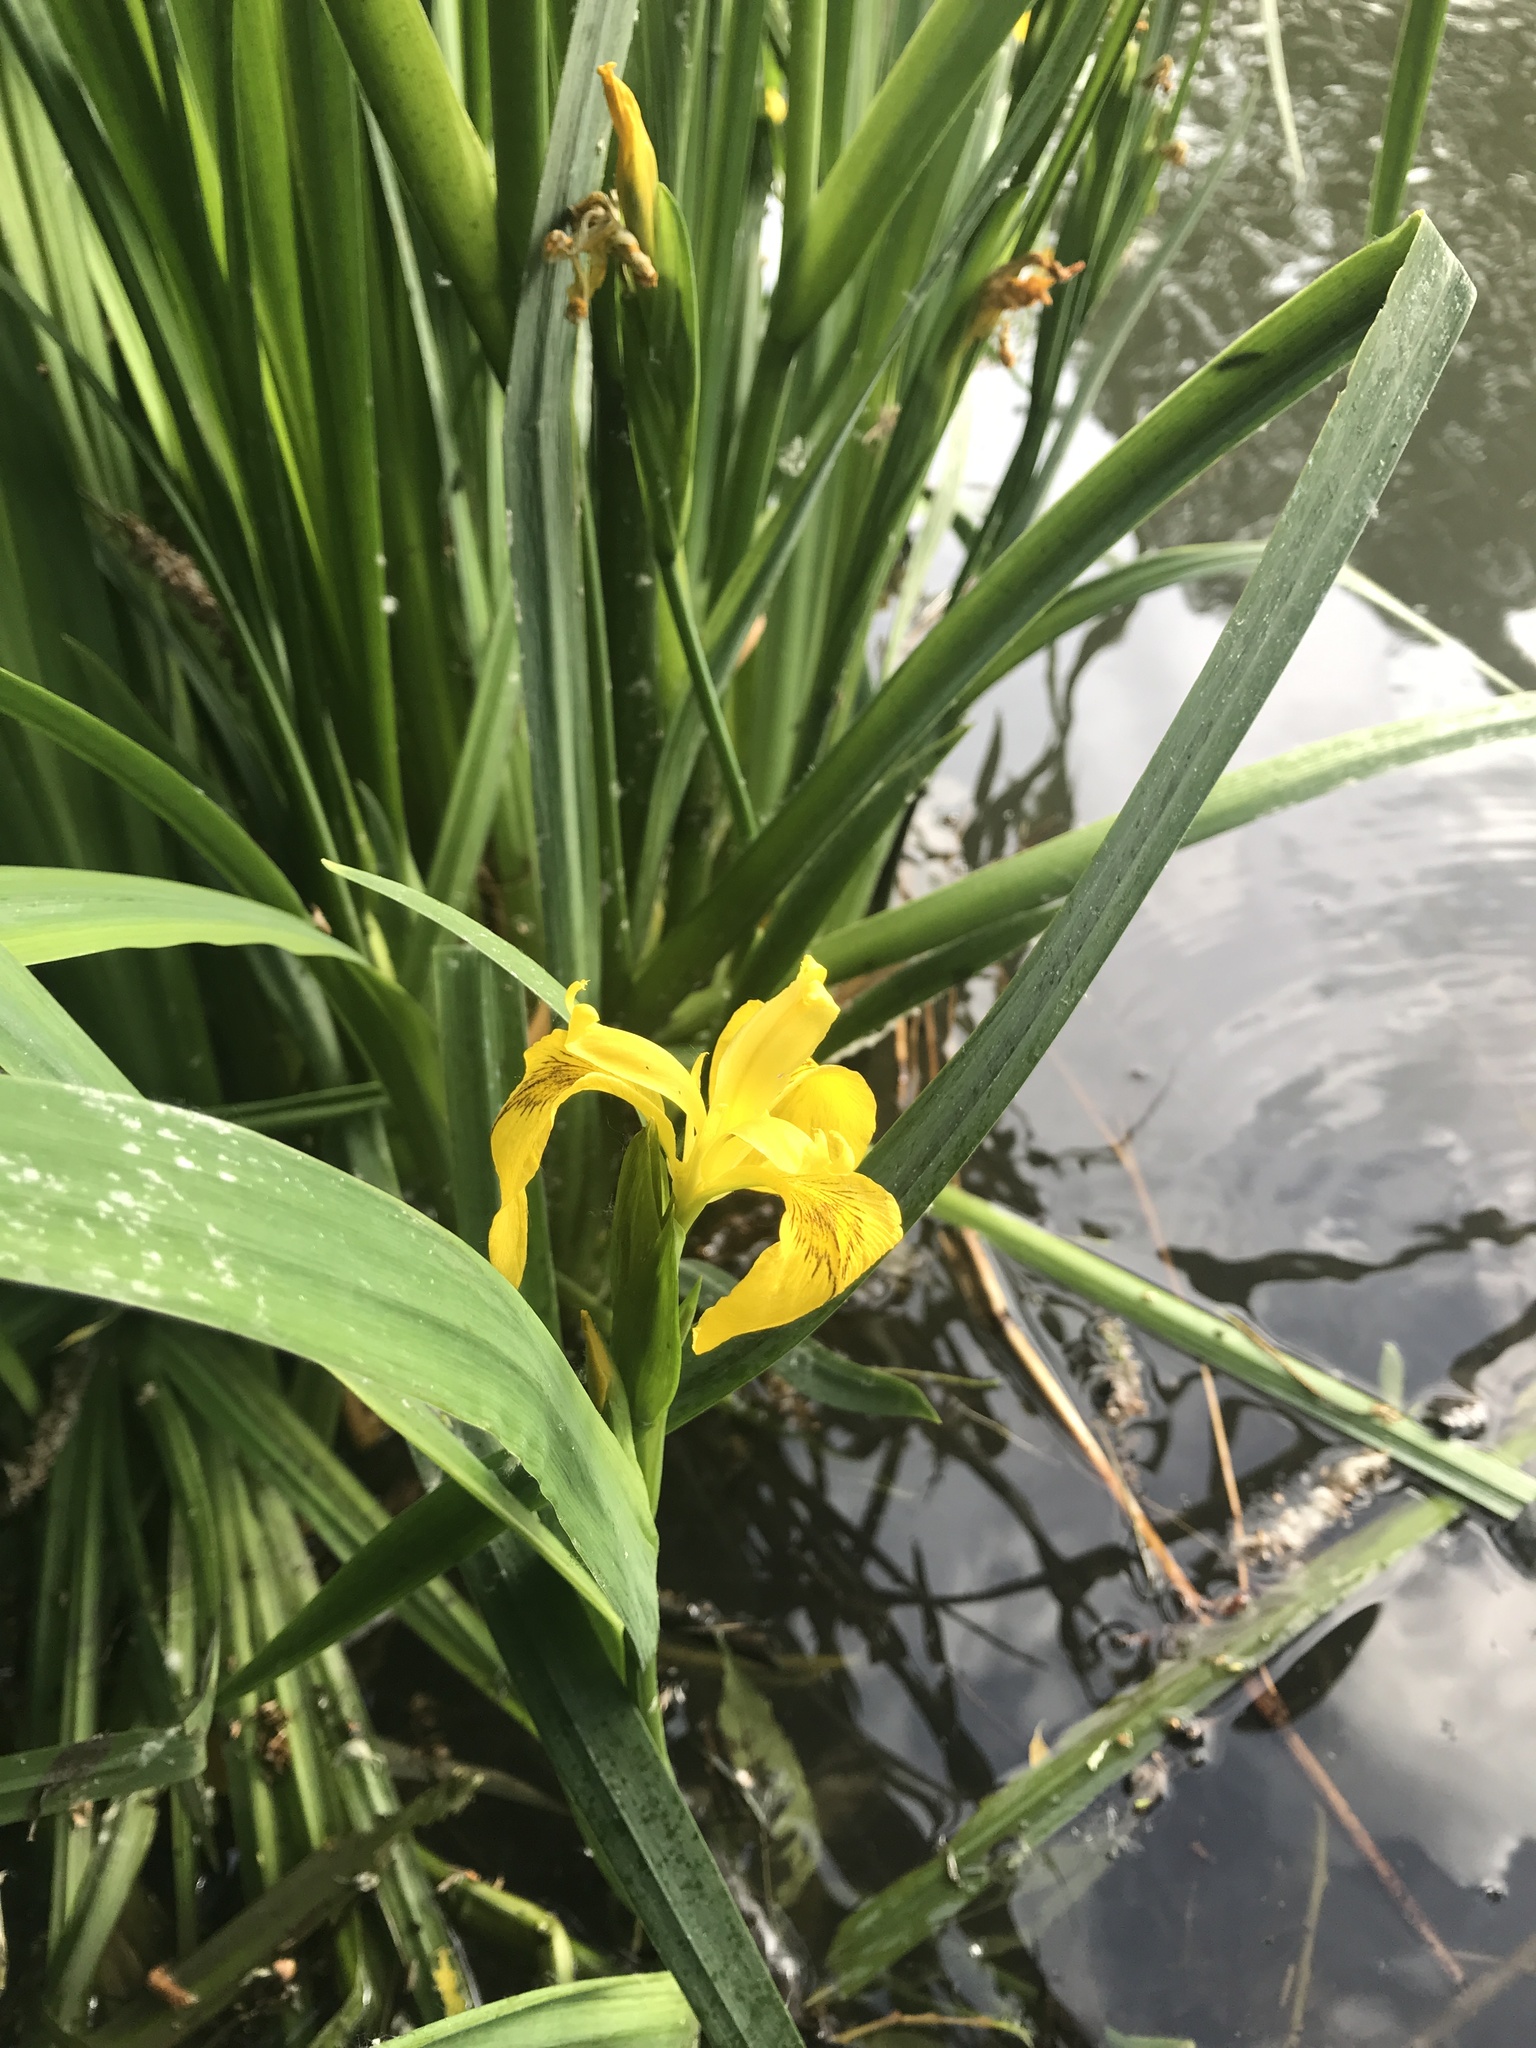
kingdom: Plantae
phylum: Tracheophyta
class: Liliopsida
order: Asparagales
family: Iridaceae
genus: Iris
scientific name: Iris pseudacorus
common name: Yellow flag
